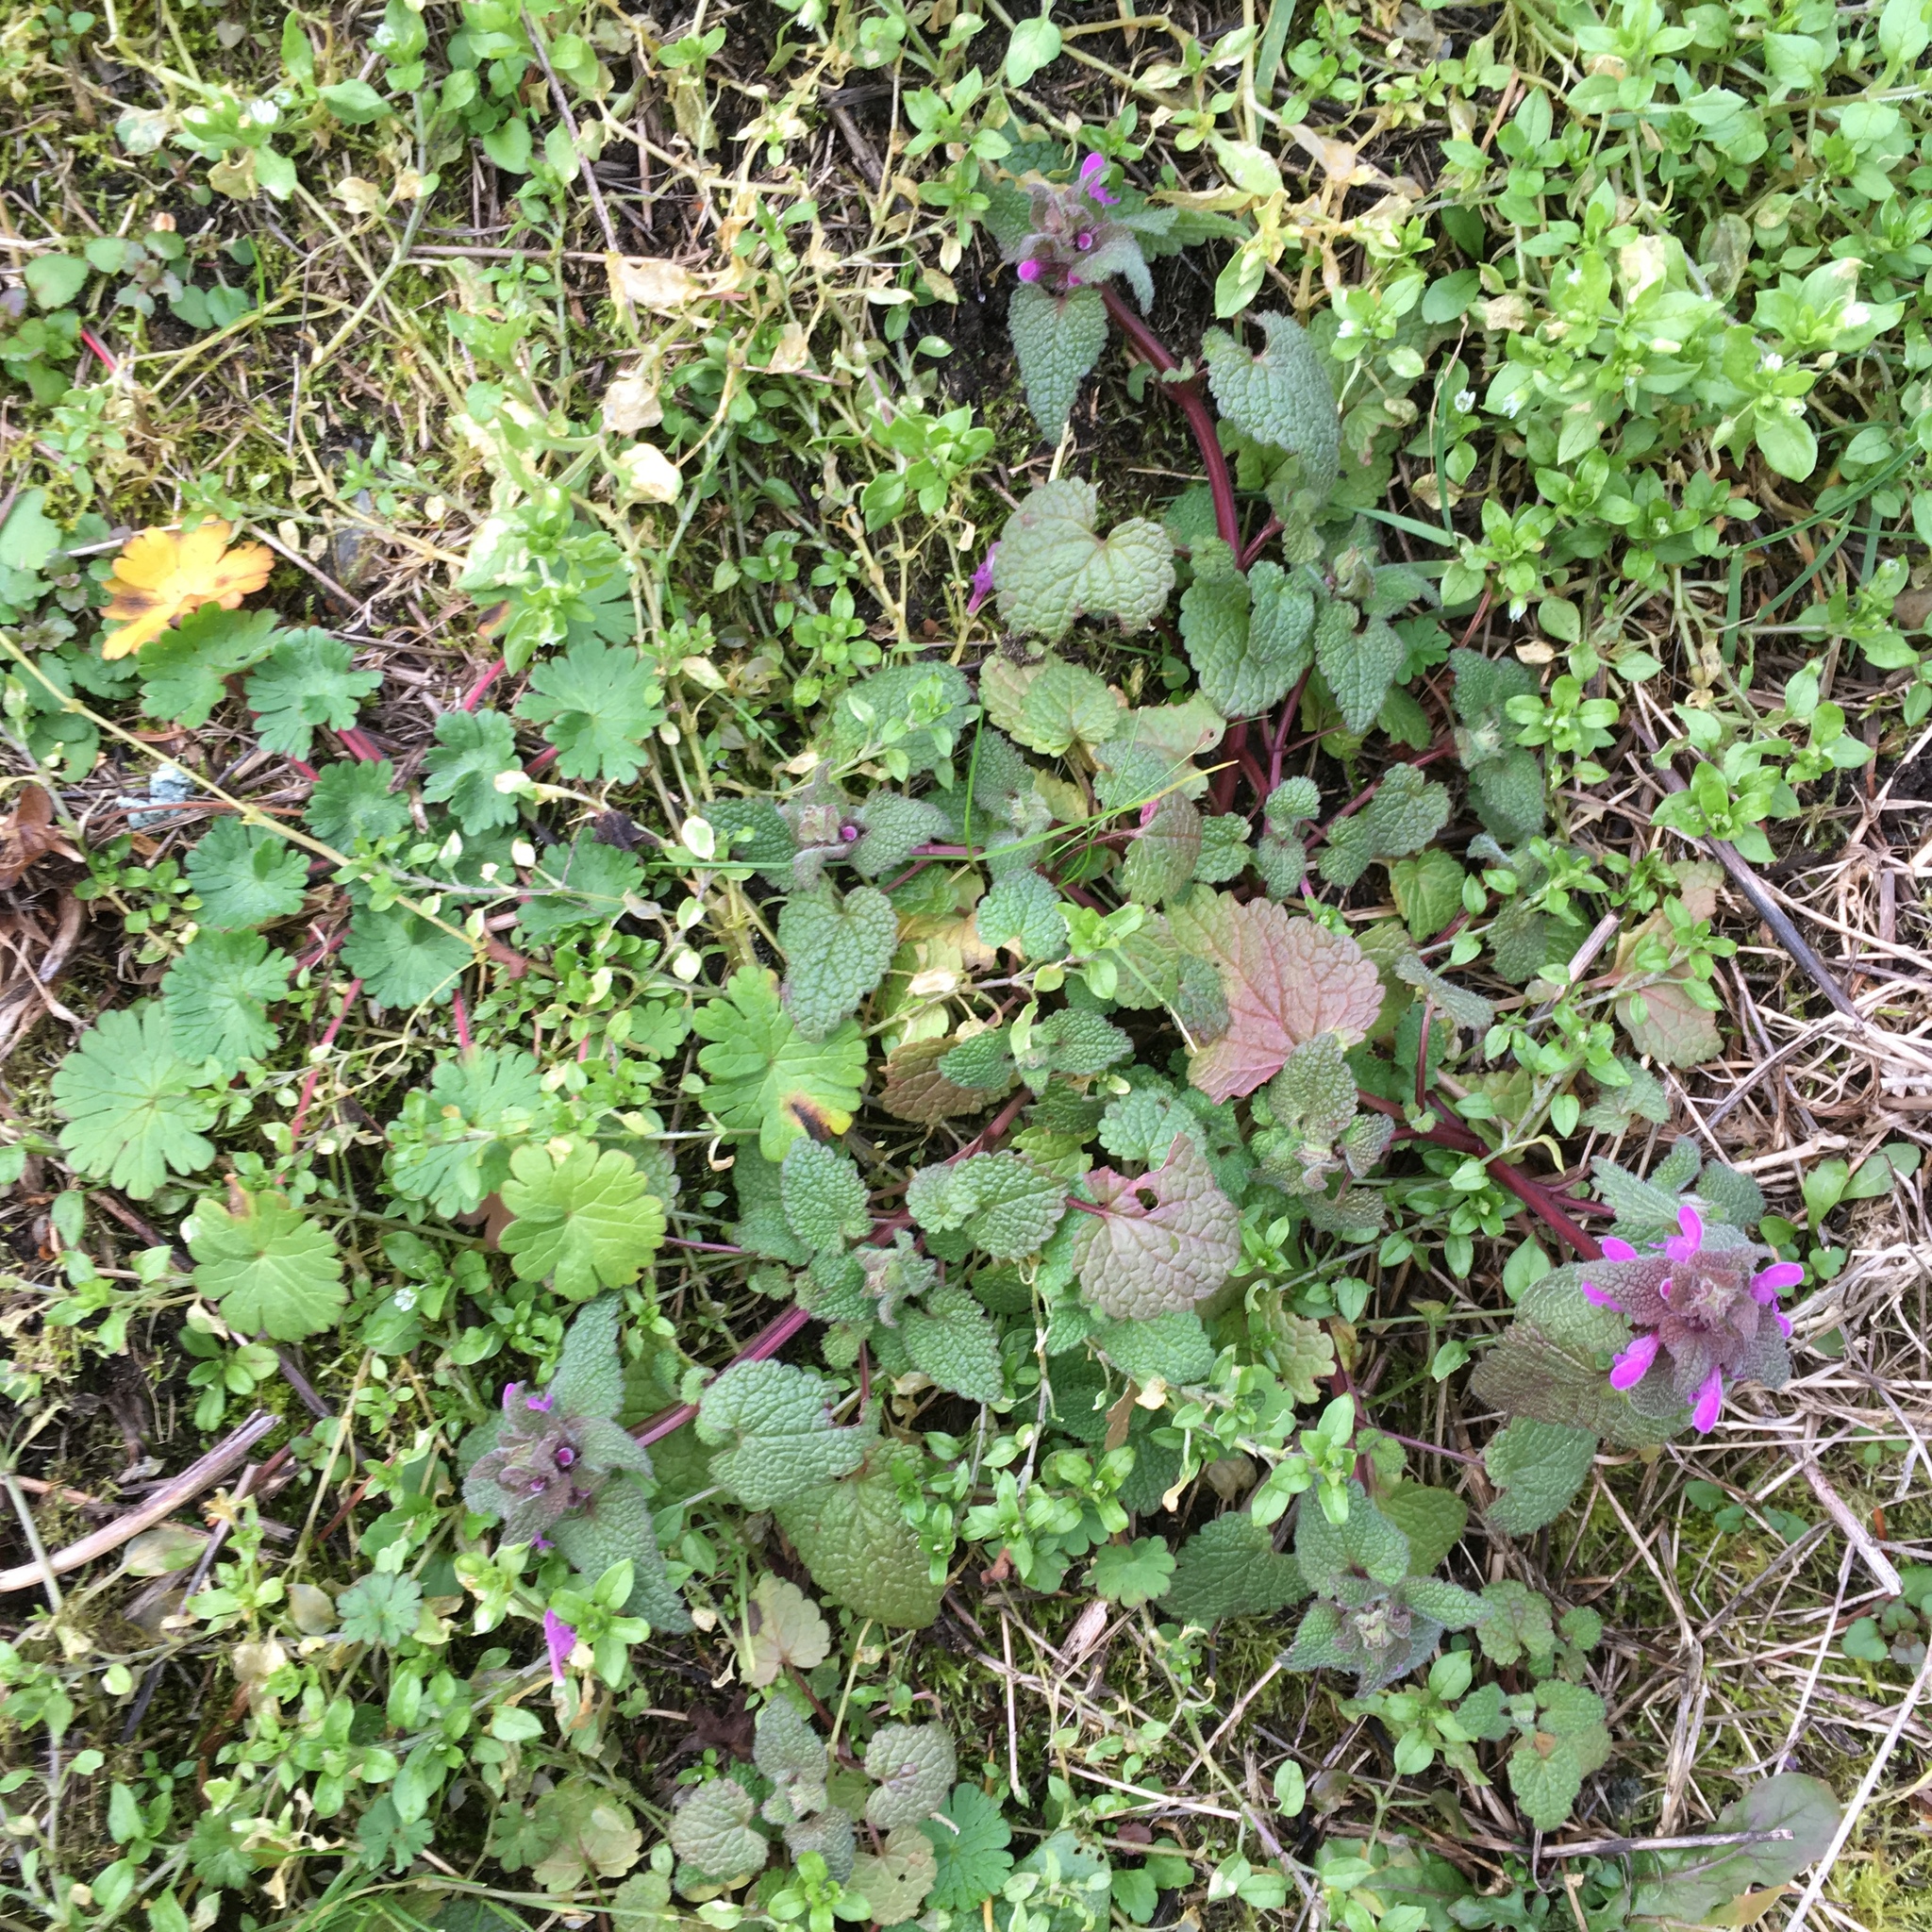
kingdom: Plantae
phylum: Tracheophyta
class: Magnoliopsida
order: Lamiales
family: Lamiaceae
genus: Lamium
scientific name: Lamium purpureum
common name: Red dead-nettle
